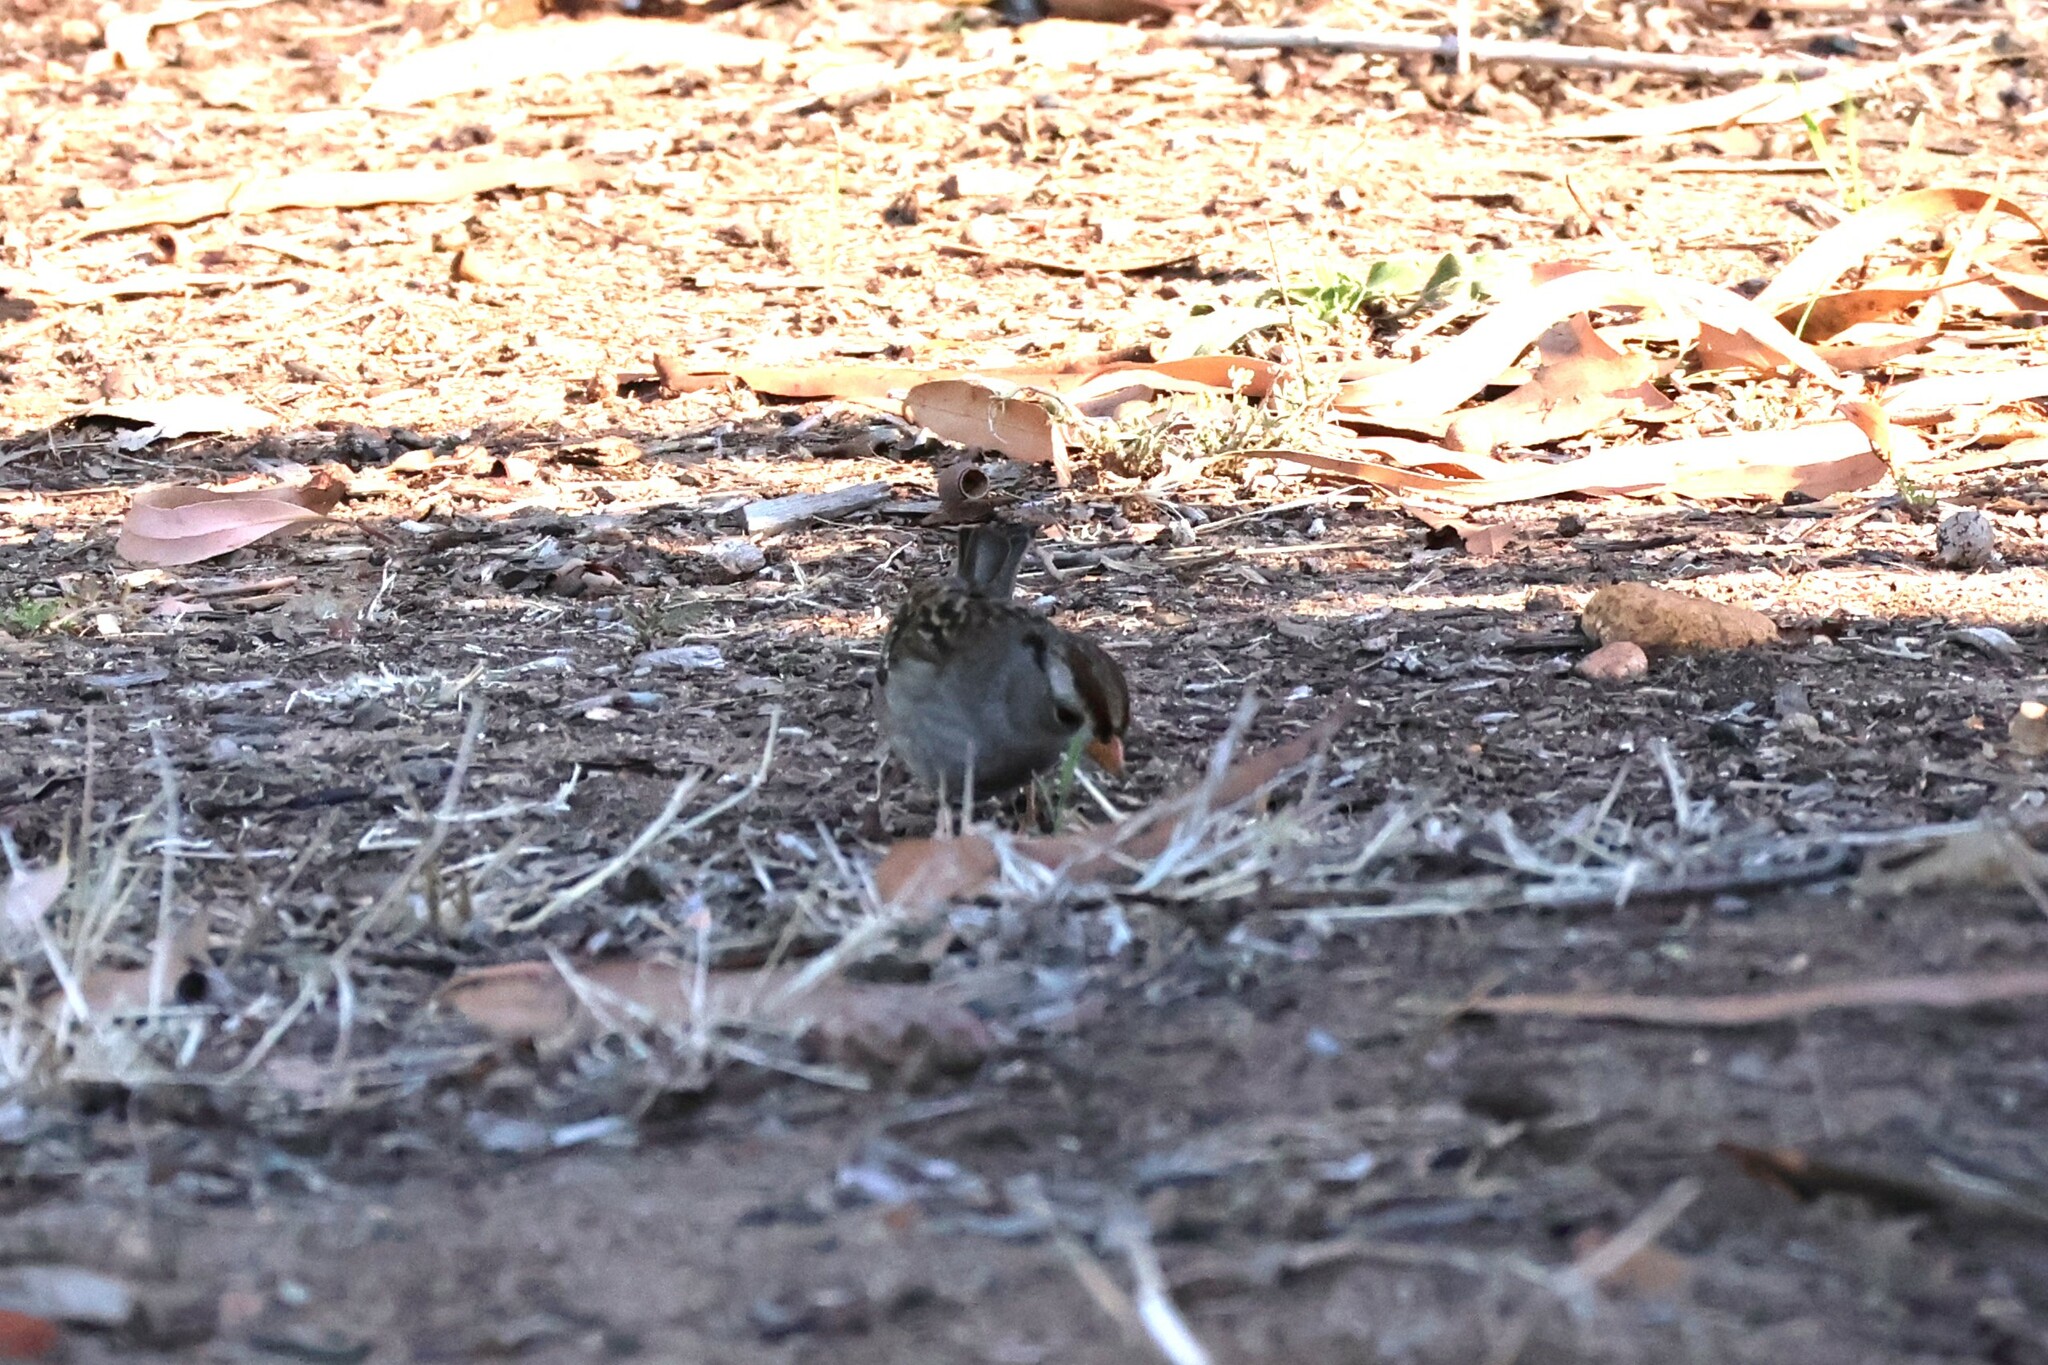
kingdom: Animalia
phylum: Chordata
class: Aves
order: Passeriformes
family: Passerellidae
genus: Zonotrichia
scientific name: Zonotrichia leucophrys
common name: White-crowned sparrow
